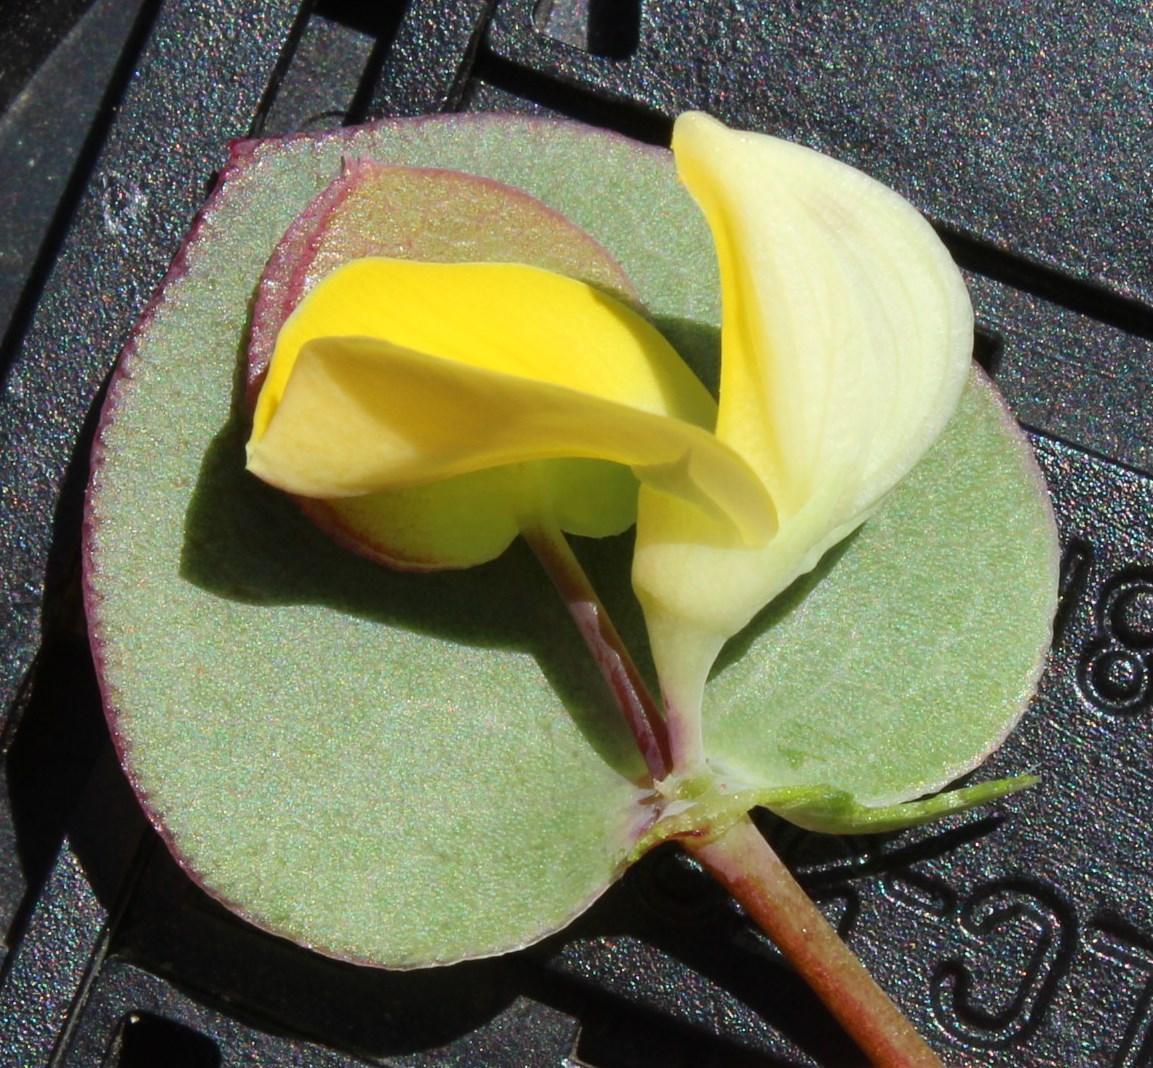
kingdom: Plantae
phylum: Tracheophyta
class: Magnoliopsida
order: Fabales
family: Fabaceae
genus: Rafnia
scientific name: Rafnia acuminata
